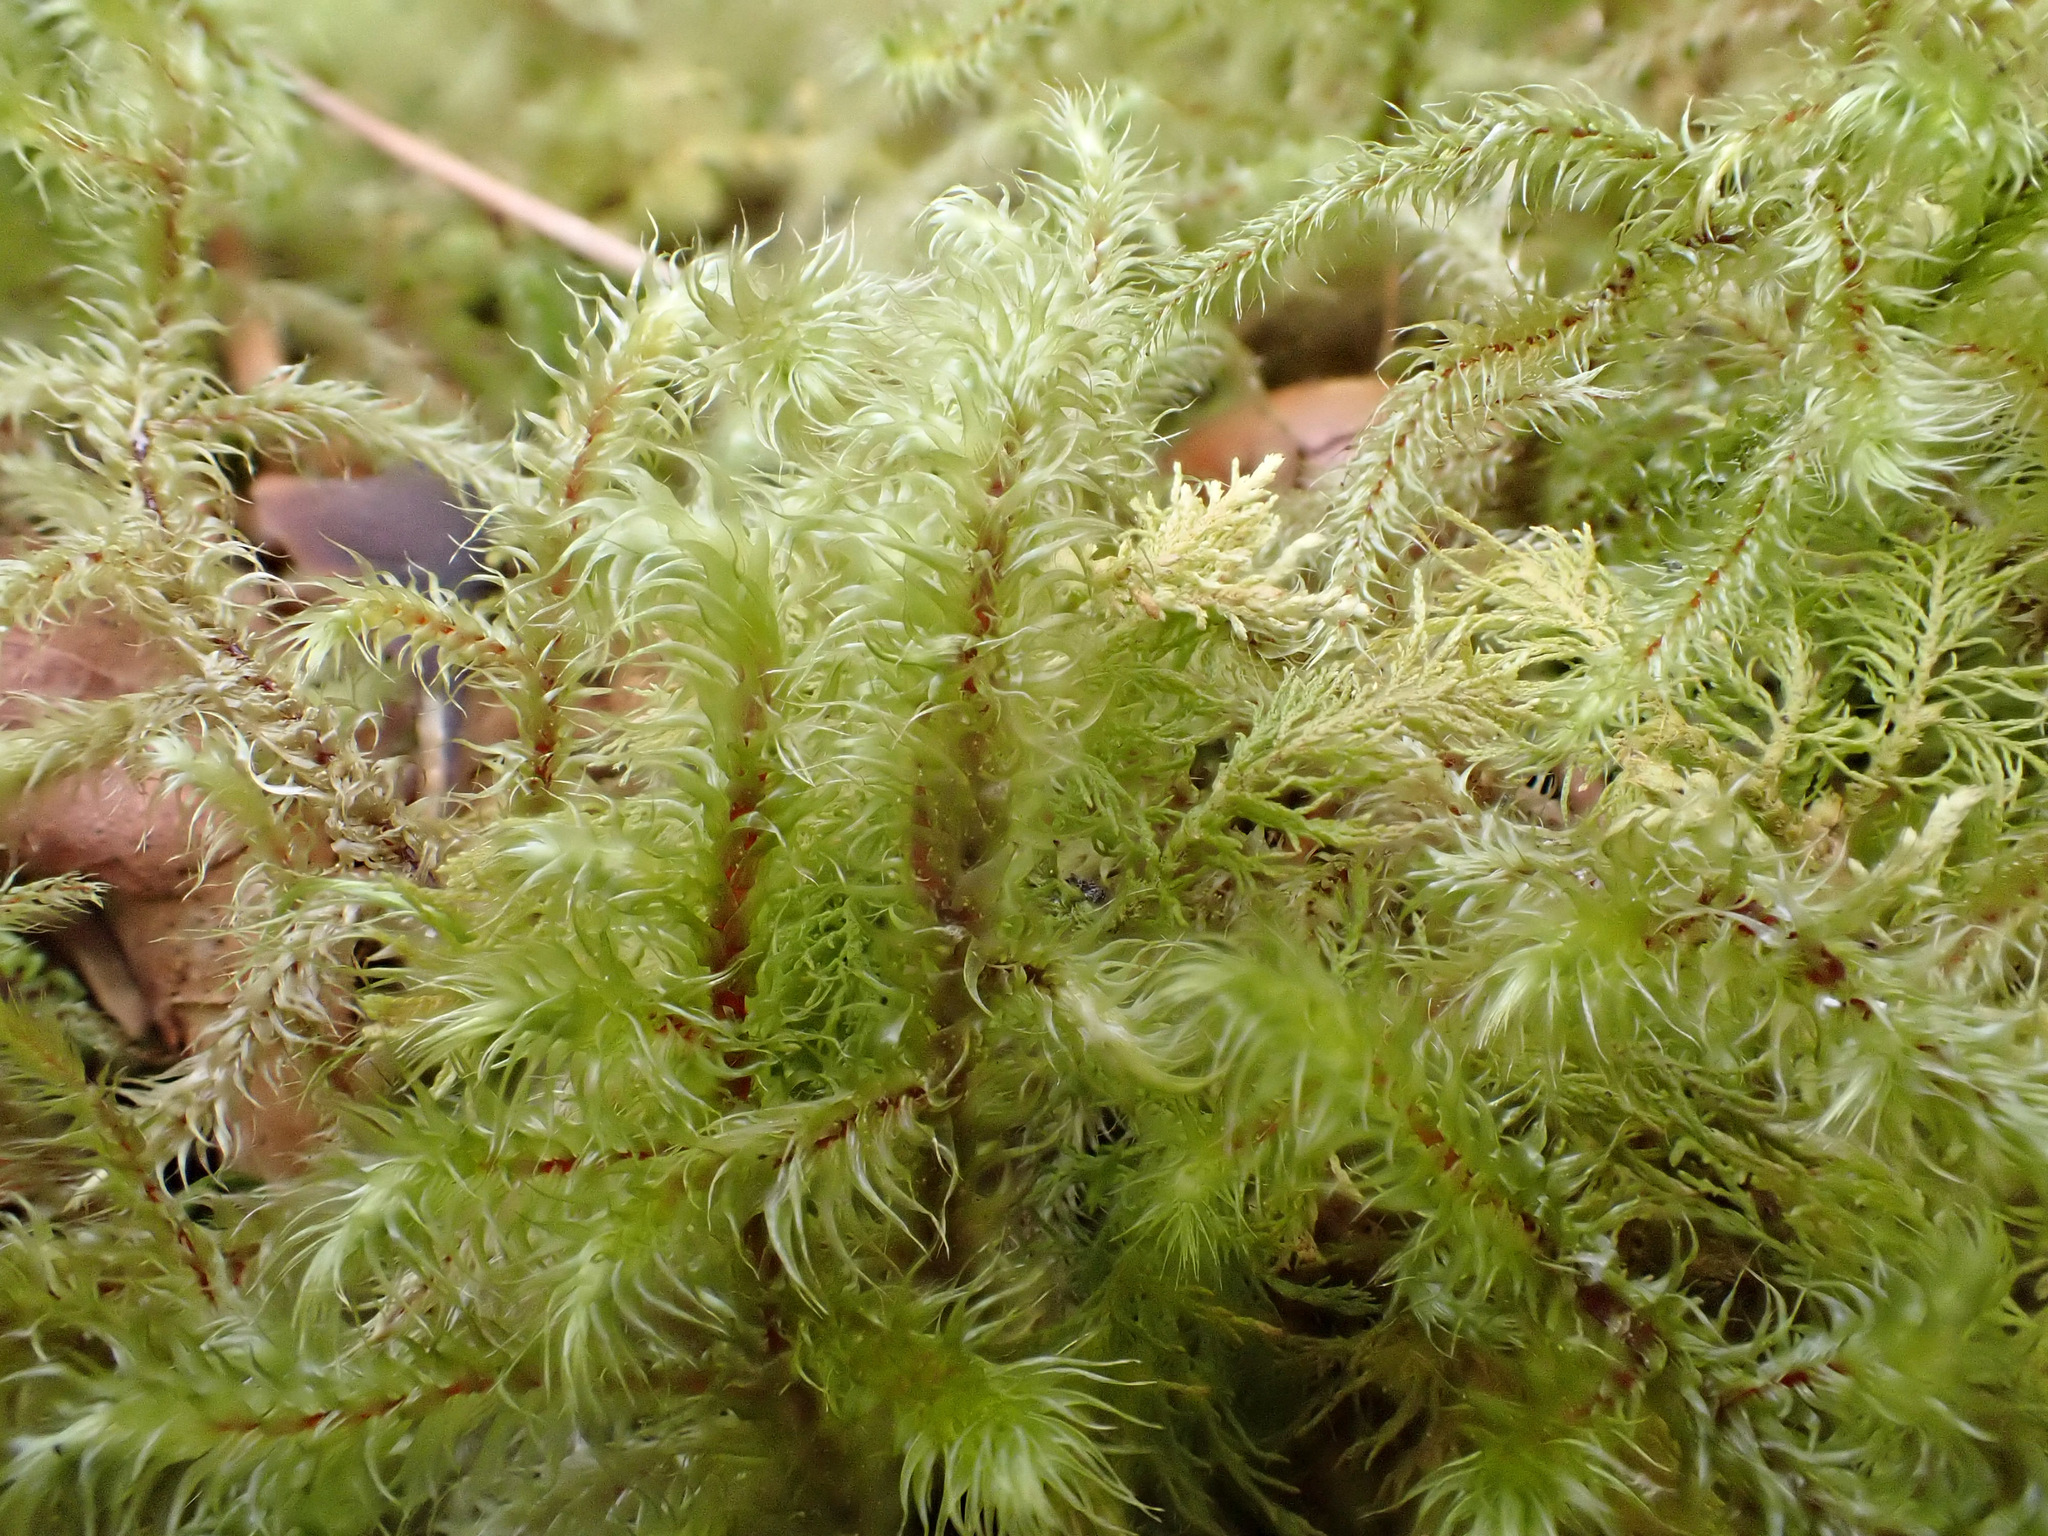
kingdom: Plantae
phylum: Bryophyta
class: Bryopsida
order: Hypnales
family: Hylocomiaceae
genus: Rhytidiadelphus
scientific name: Rhytidiadelphus loreus
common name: Lanky moss
